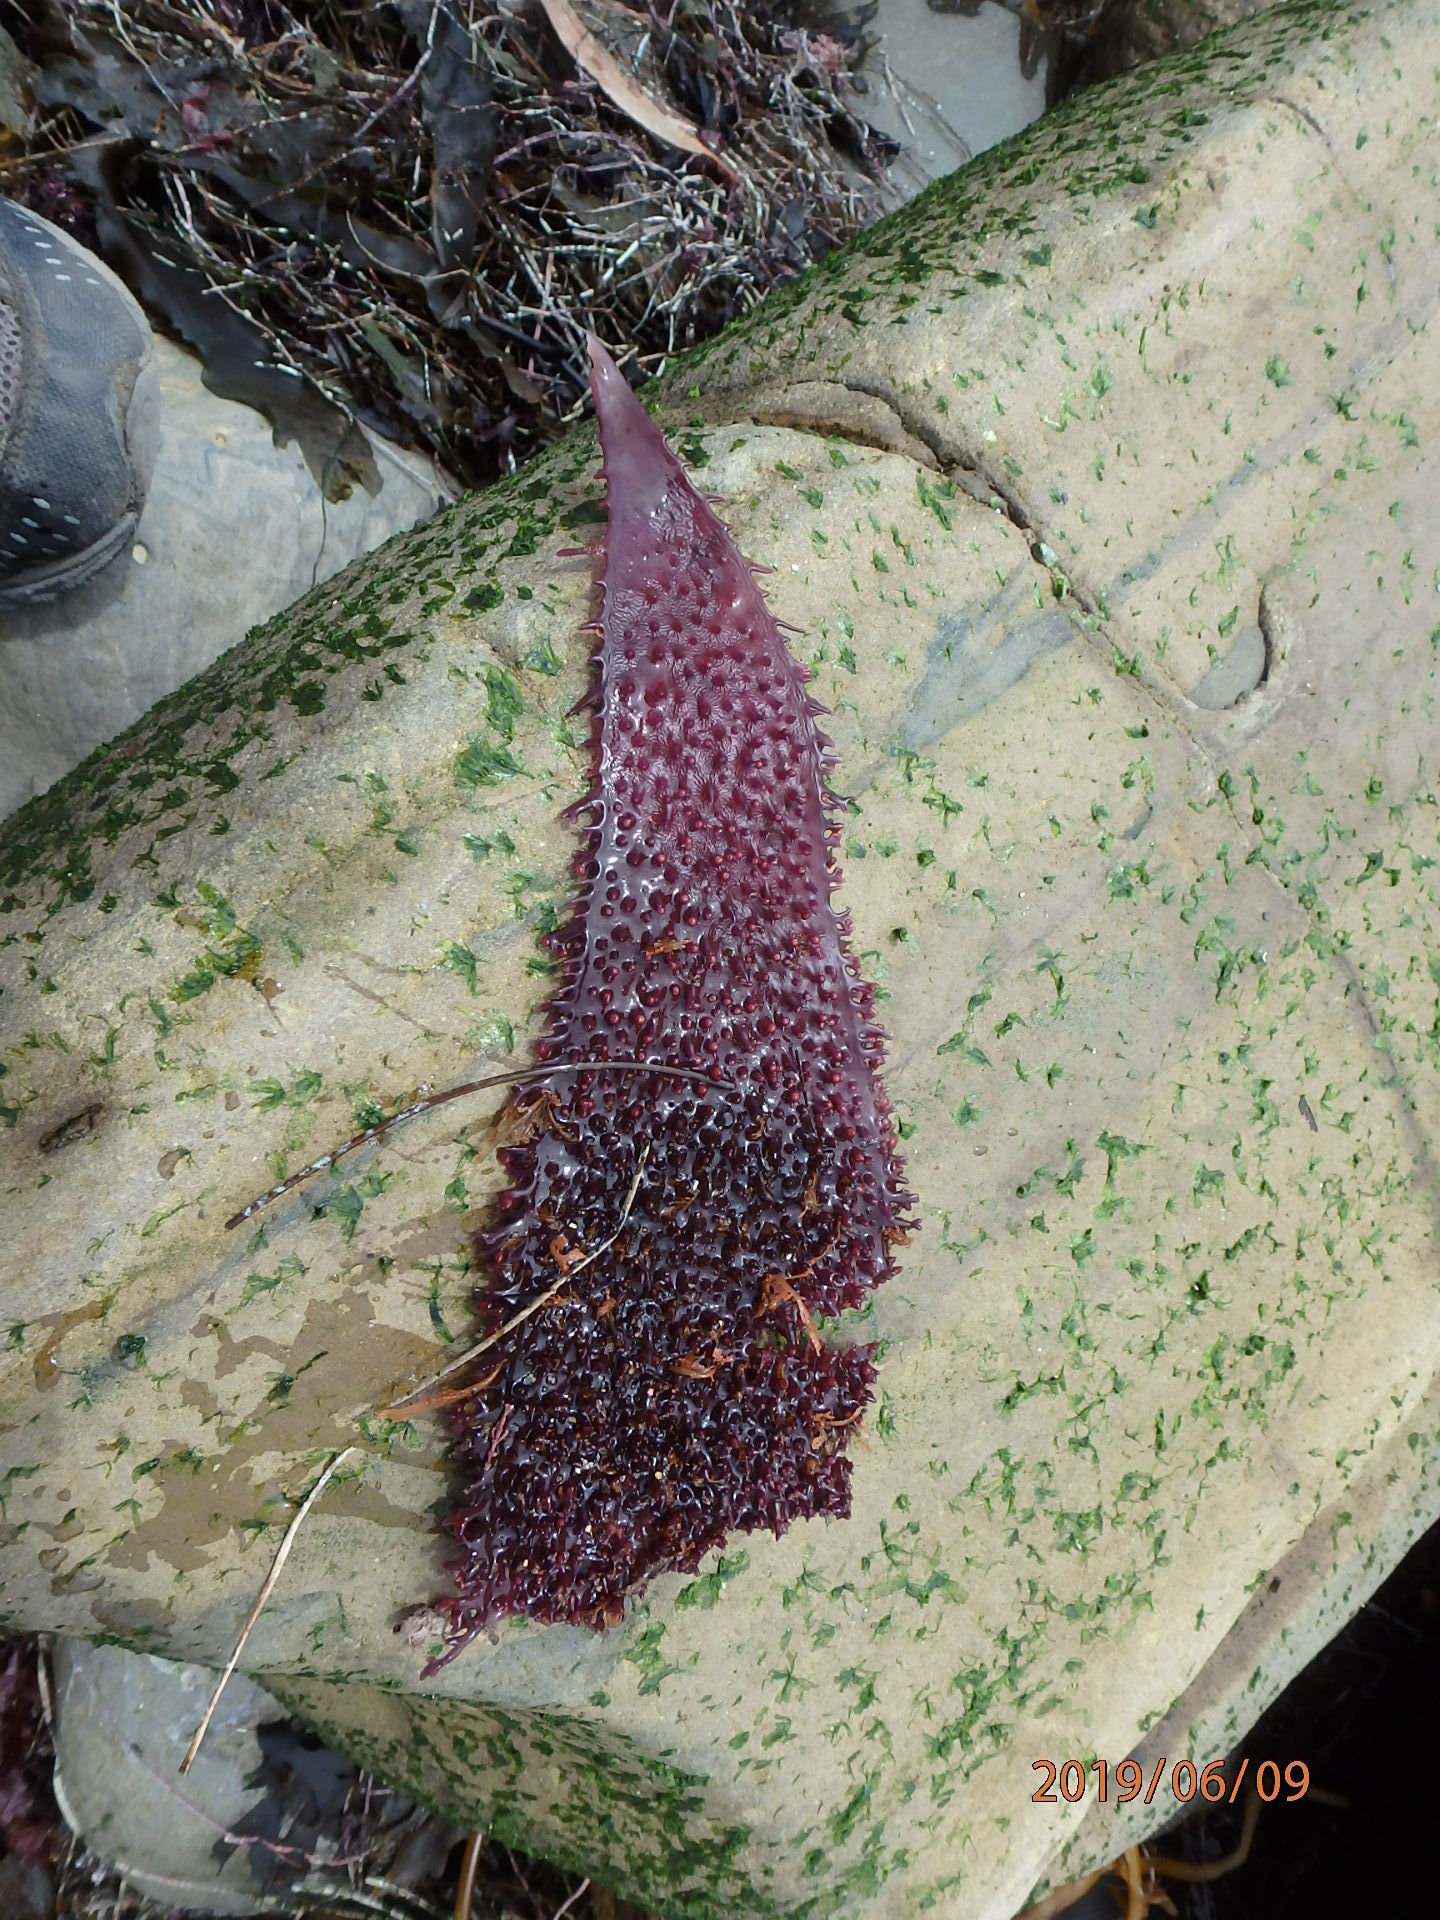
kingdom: Plantae
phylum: Rhodophyta
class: Florideophyceae
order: Gigartinales
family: Gigartinaceae
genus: Chondracanthus
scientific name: Chondracanthus exasperatus
